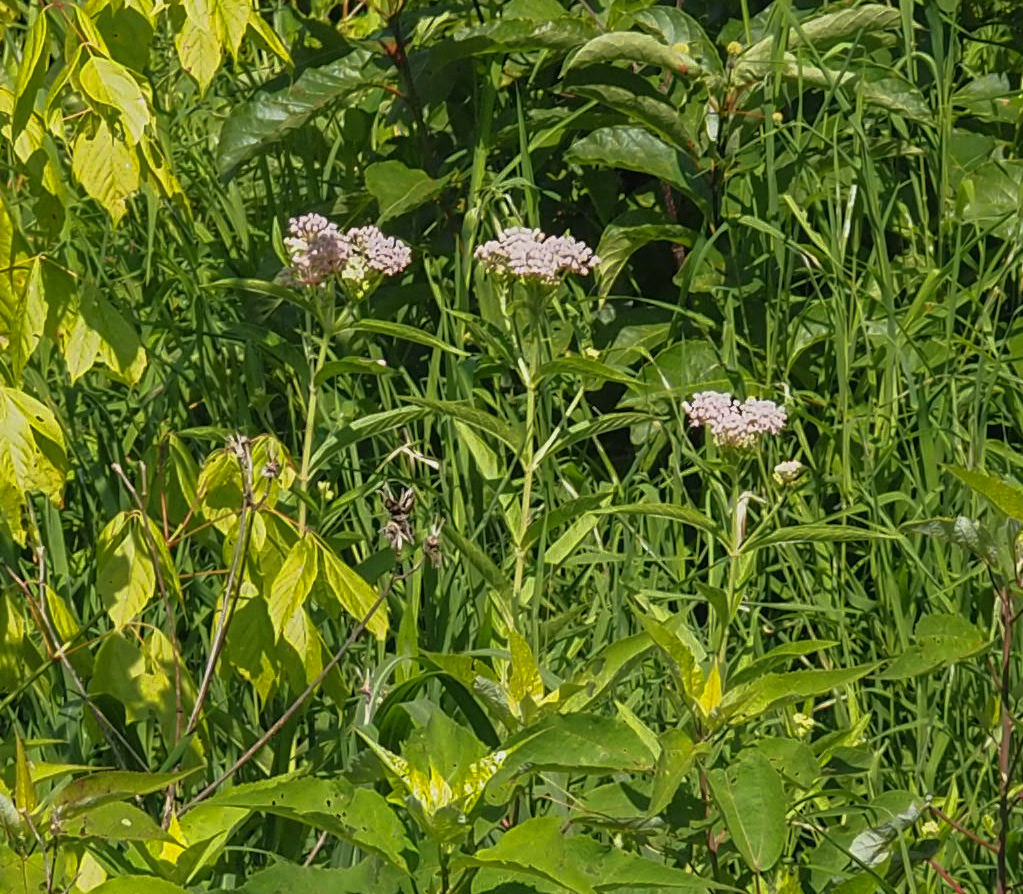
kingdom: Plantae
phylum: Tracheophyta
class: Magnoliopsida
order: Gentianales
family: Apocynaceae
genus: Asclepias
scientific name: Asclepias incarnata
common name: Swamp milkweed
